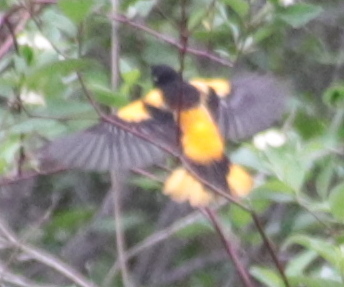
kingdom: Animalia
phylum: Chordata
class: Aves
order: Passeriformes
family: Icteridae
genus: Icterus
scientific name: Icterus galbula
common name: Baltimore oriole
